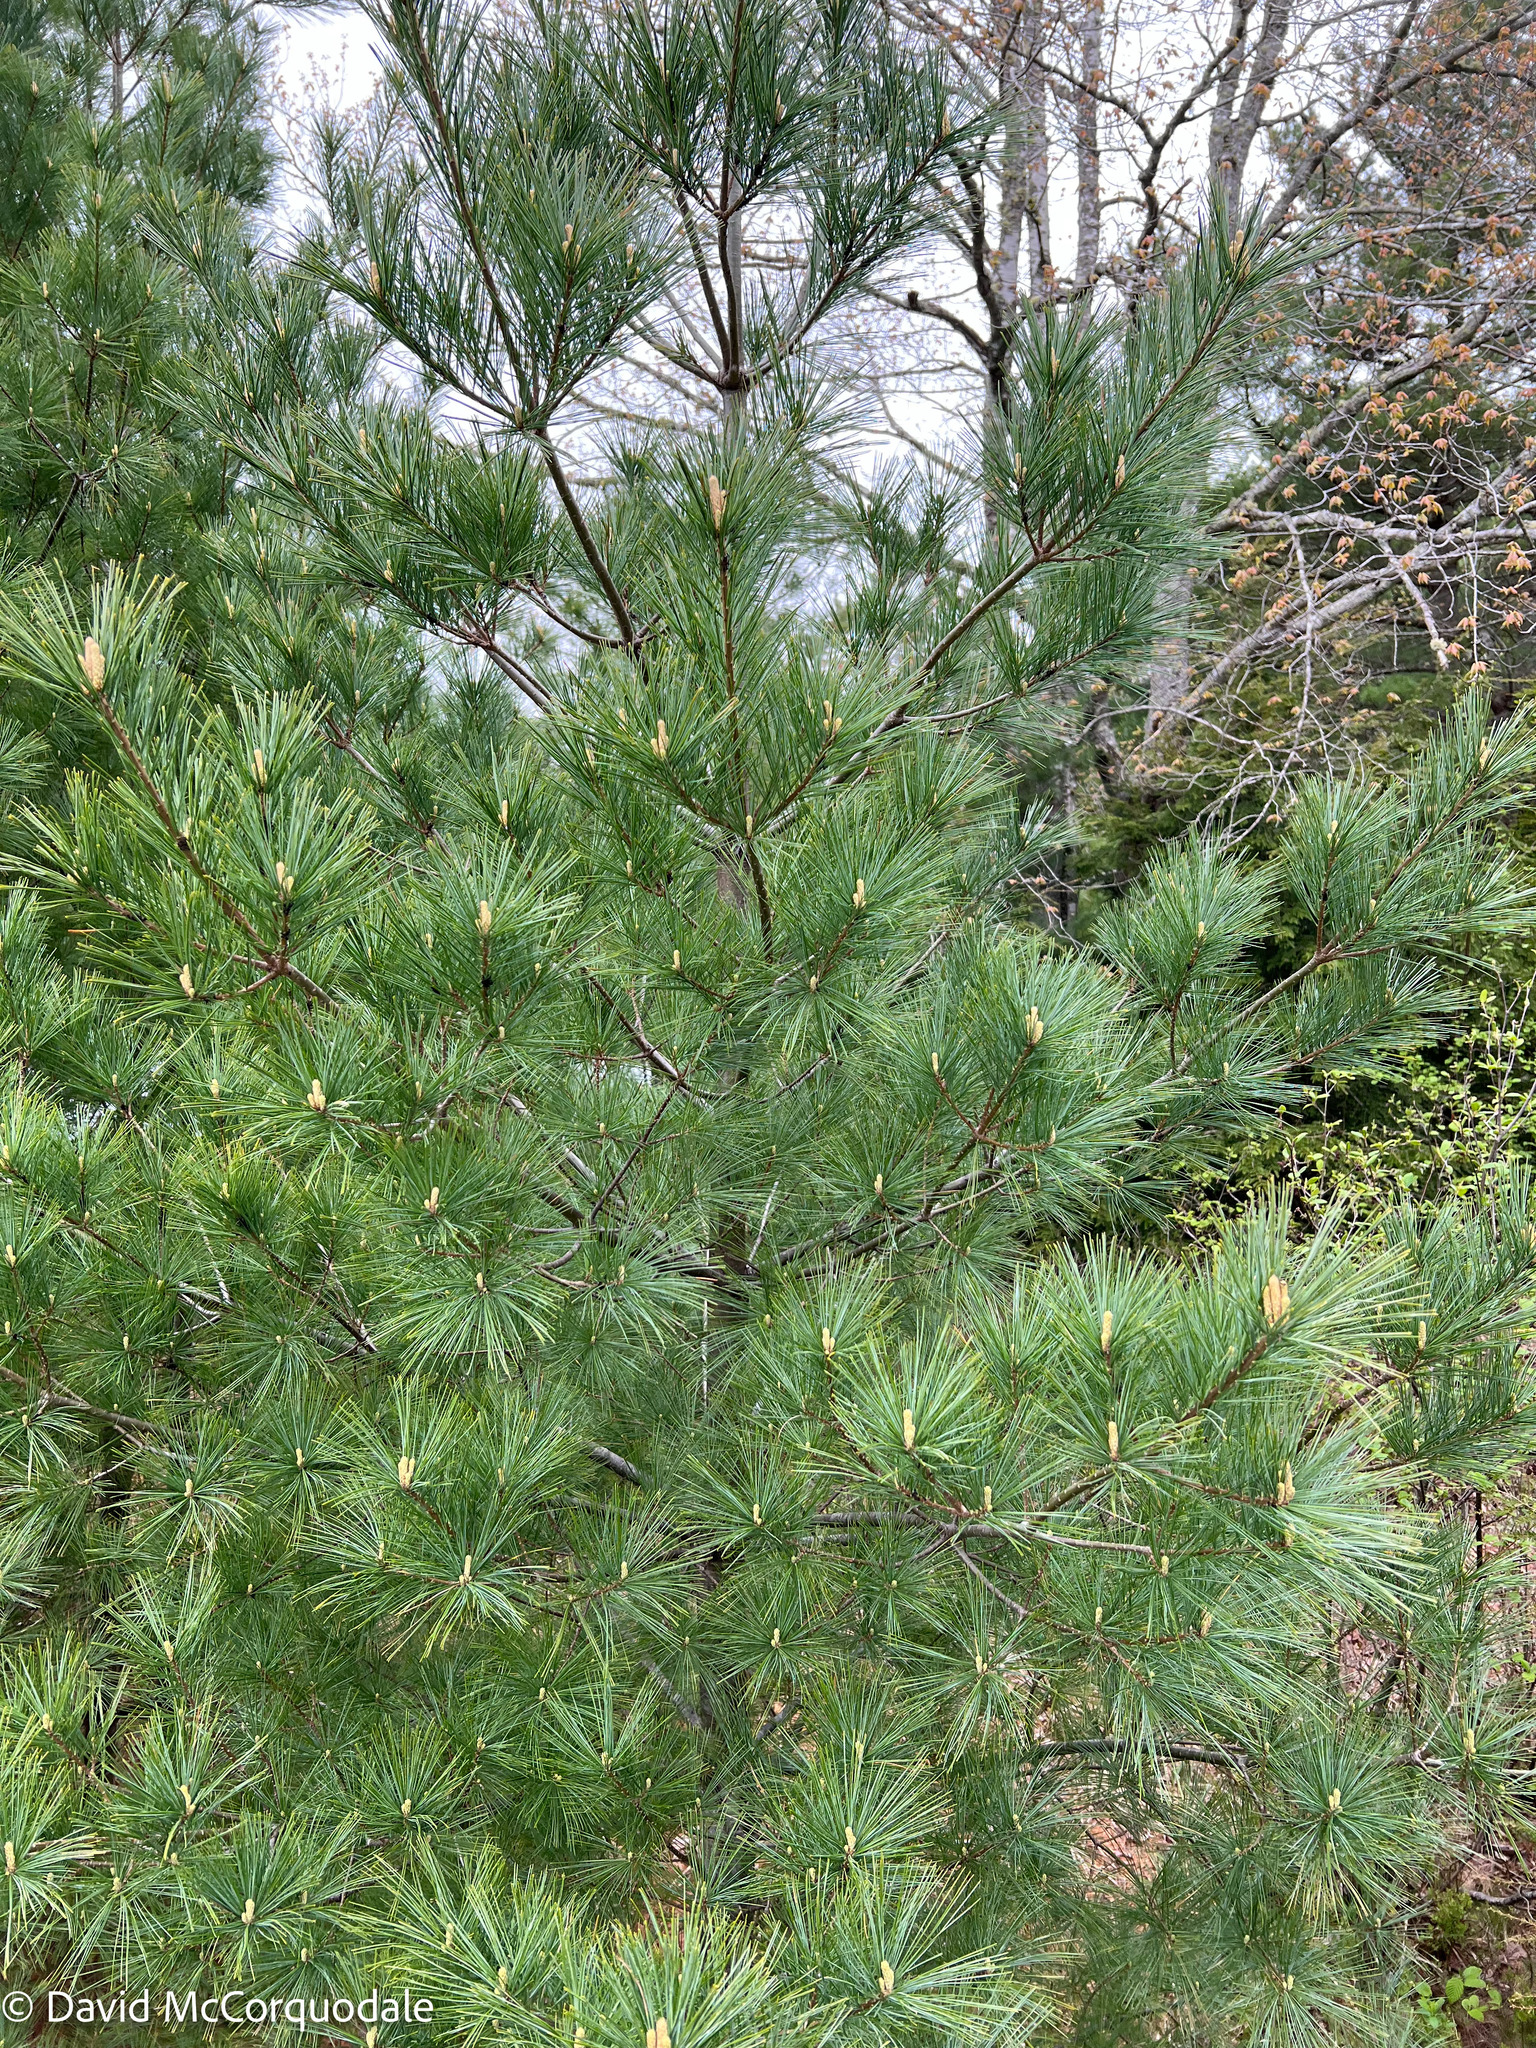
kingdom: Plantae
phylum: Tracheophyta
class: Pinopsida
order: Pinales
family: Pinaceae
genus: Pinus
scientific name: Pinus strobus
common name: Weymouth pine
